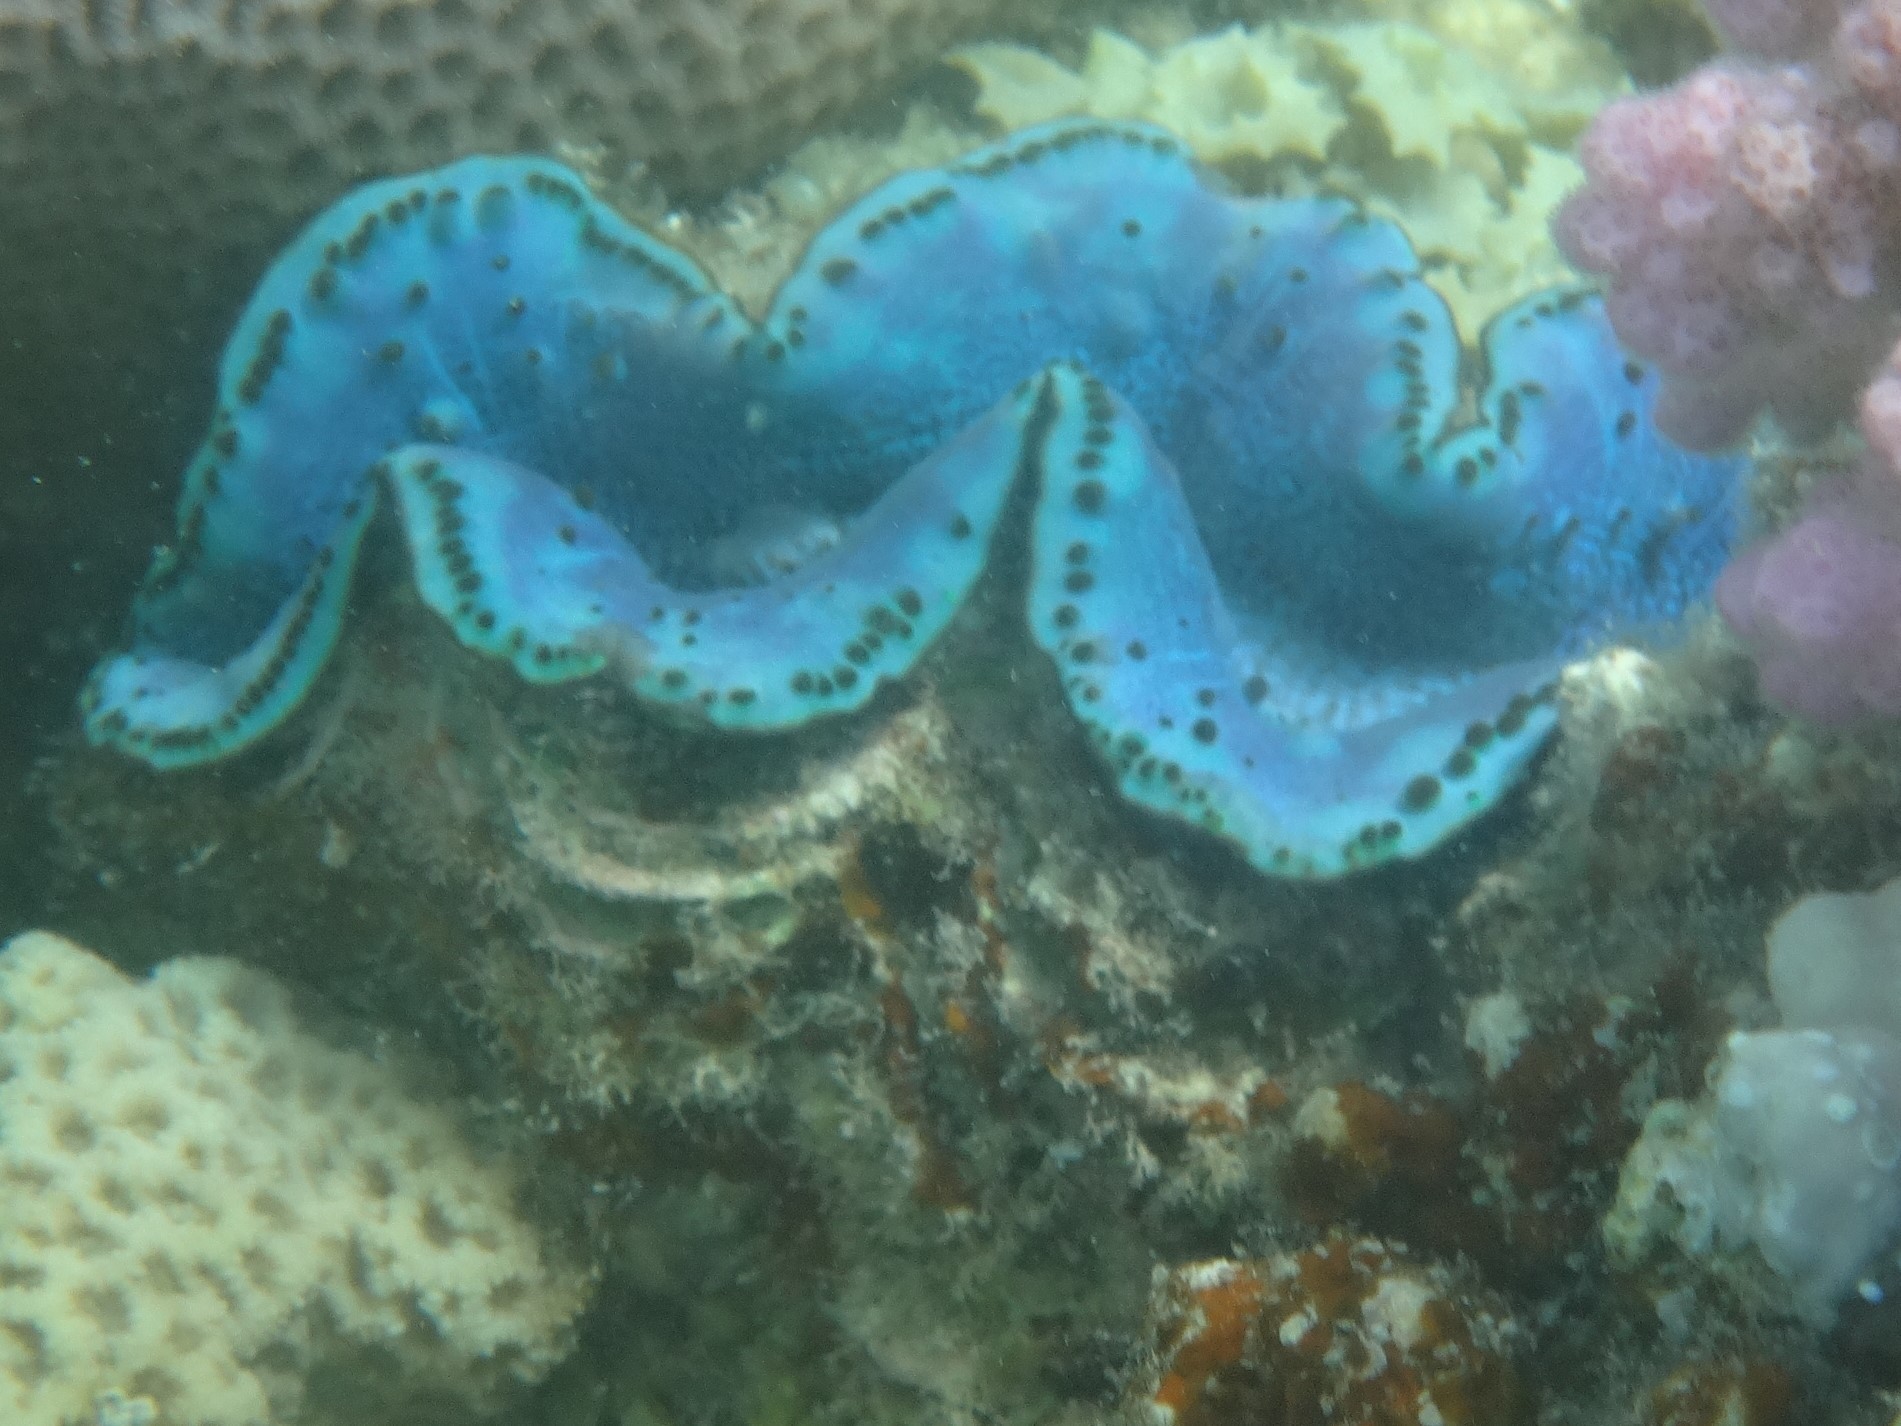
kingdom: Animalia
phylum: Mollusca
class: Bivalvia
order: Cardiida
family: Cardiidae
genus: Tridacna
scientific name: Tridacna maxima
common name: Small giant clam
